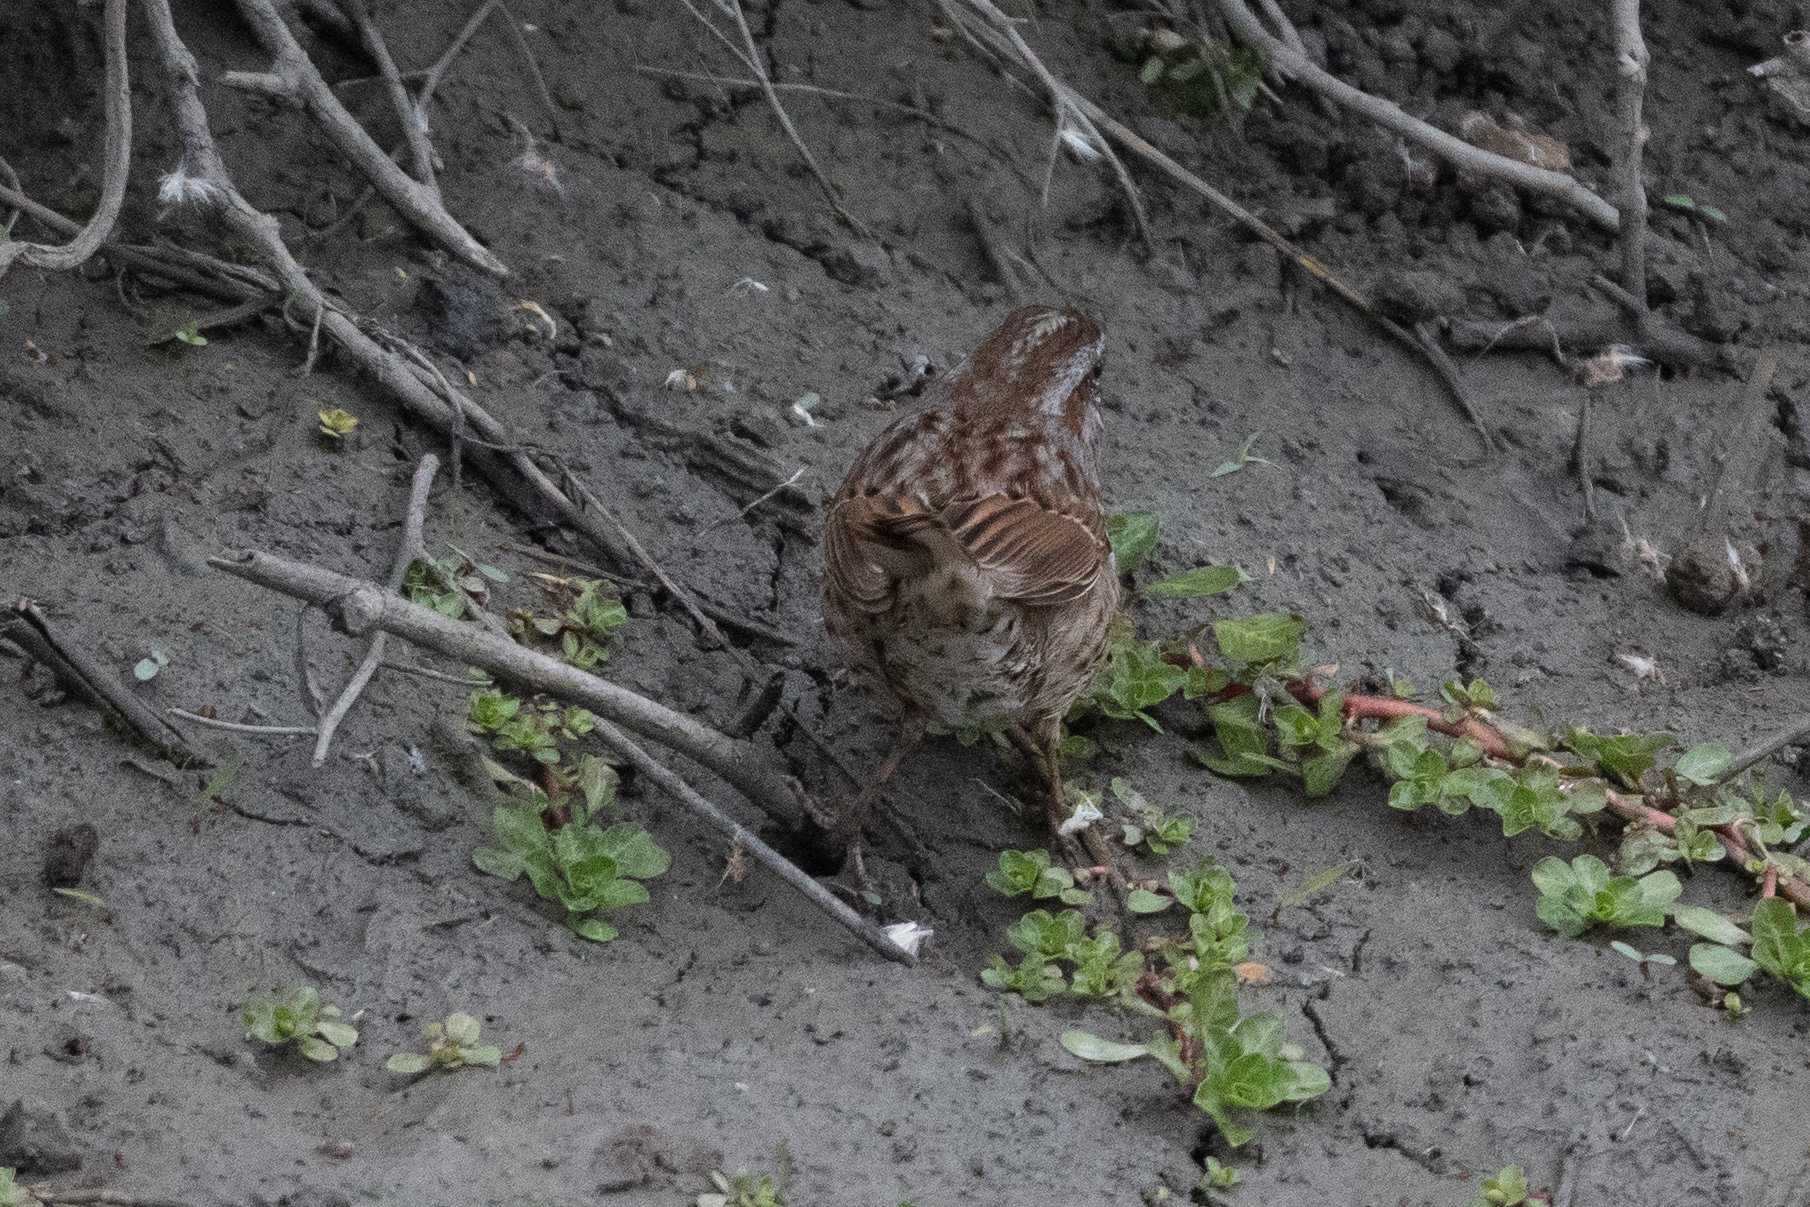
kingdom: Animalia
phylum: Chordata
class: Aves
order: Passeriformes
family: Passerellidae
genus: Melospiza
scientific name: Melospiza melodia
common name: Song sparrow
